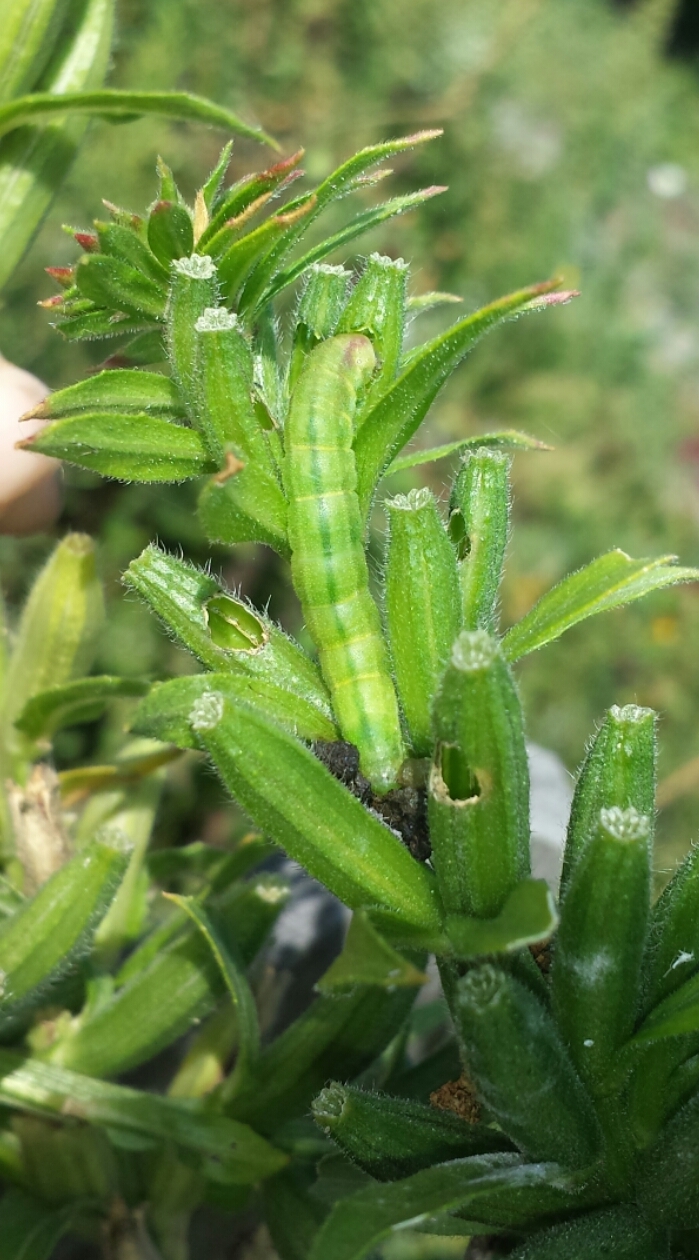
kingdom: Animalia
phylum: Arthropoda
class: Insecta
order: Lepidoptera
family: Noctuidae
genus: Schinia
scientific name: Schinia florida
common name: Primrose moth
